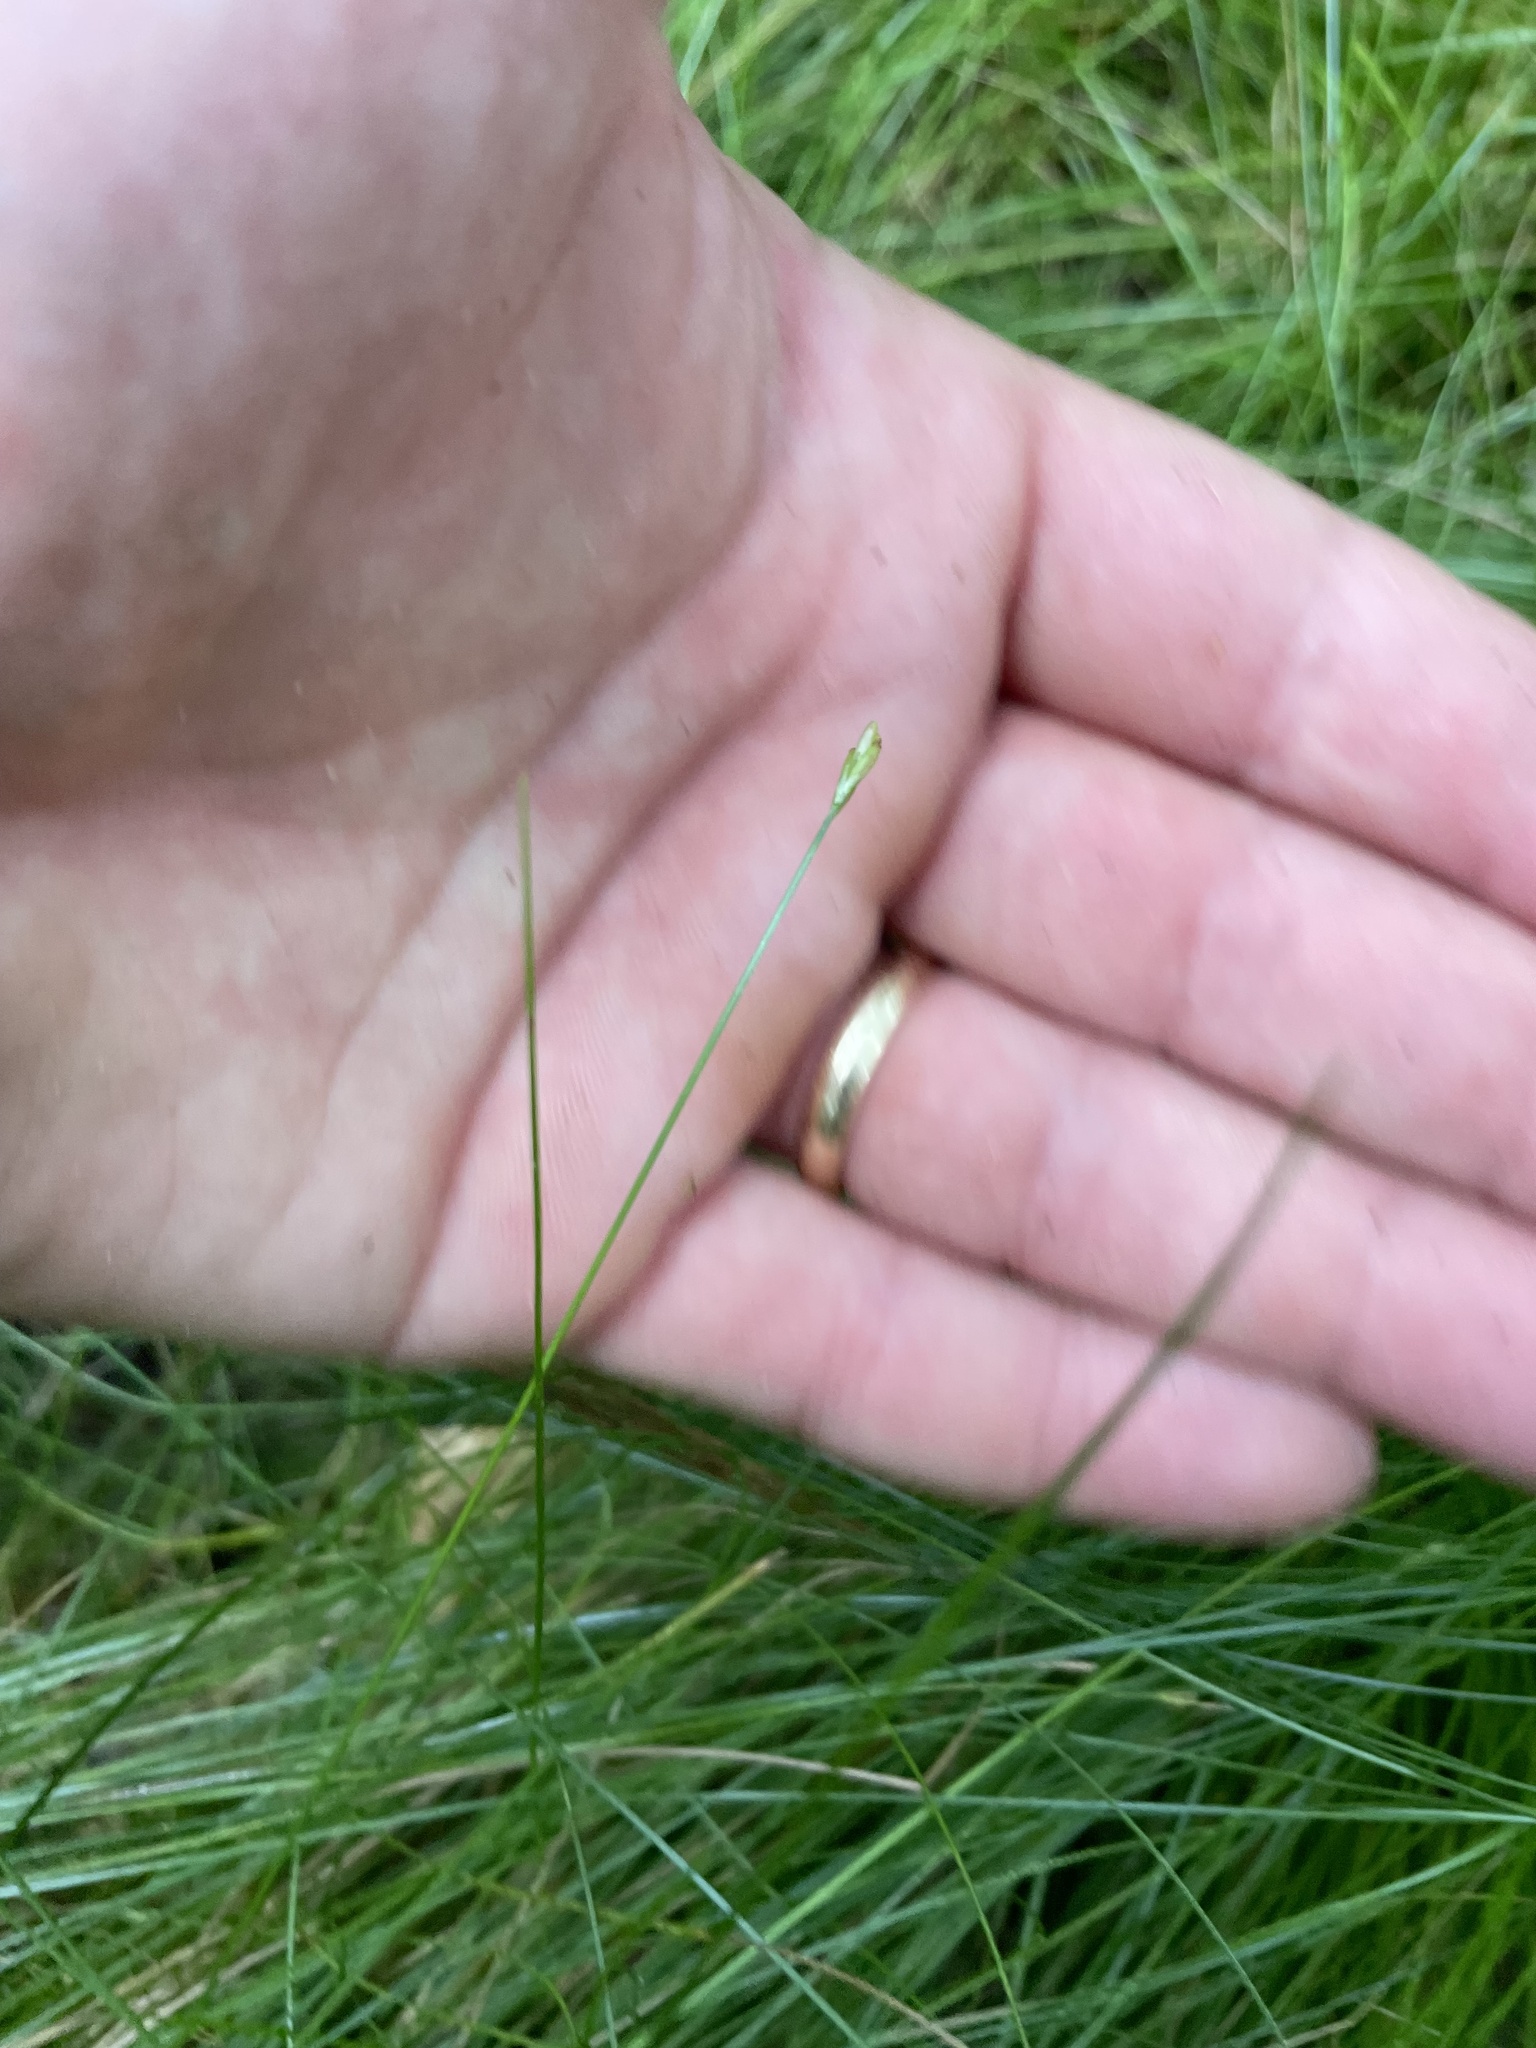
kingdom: Plantae
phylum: Tracheophyta
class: Liliopsida
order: Poales
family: Cyperaceae
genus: Carex
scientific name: Carex leptalea
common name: Bristly-stalked sedge
